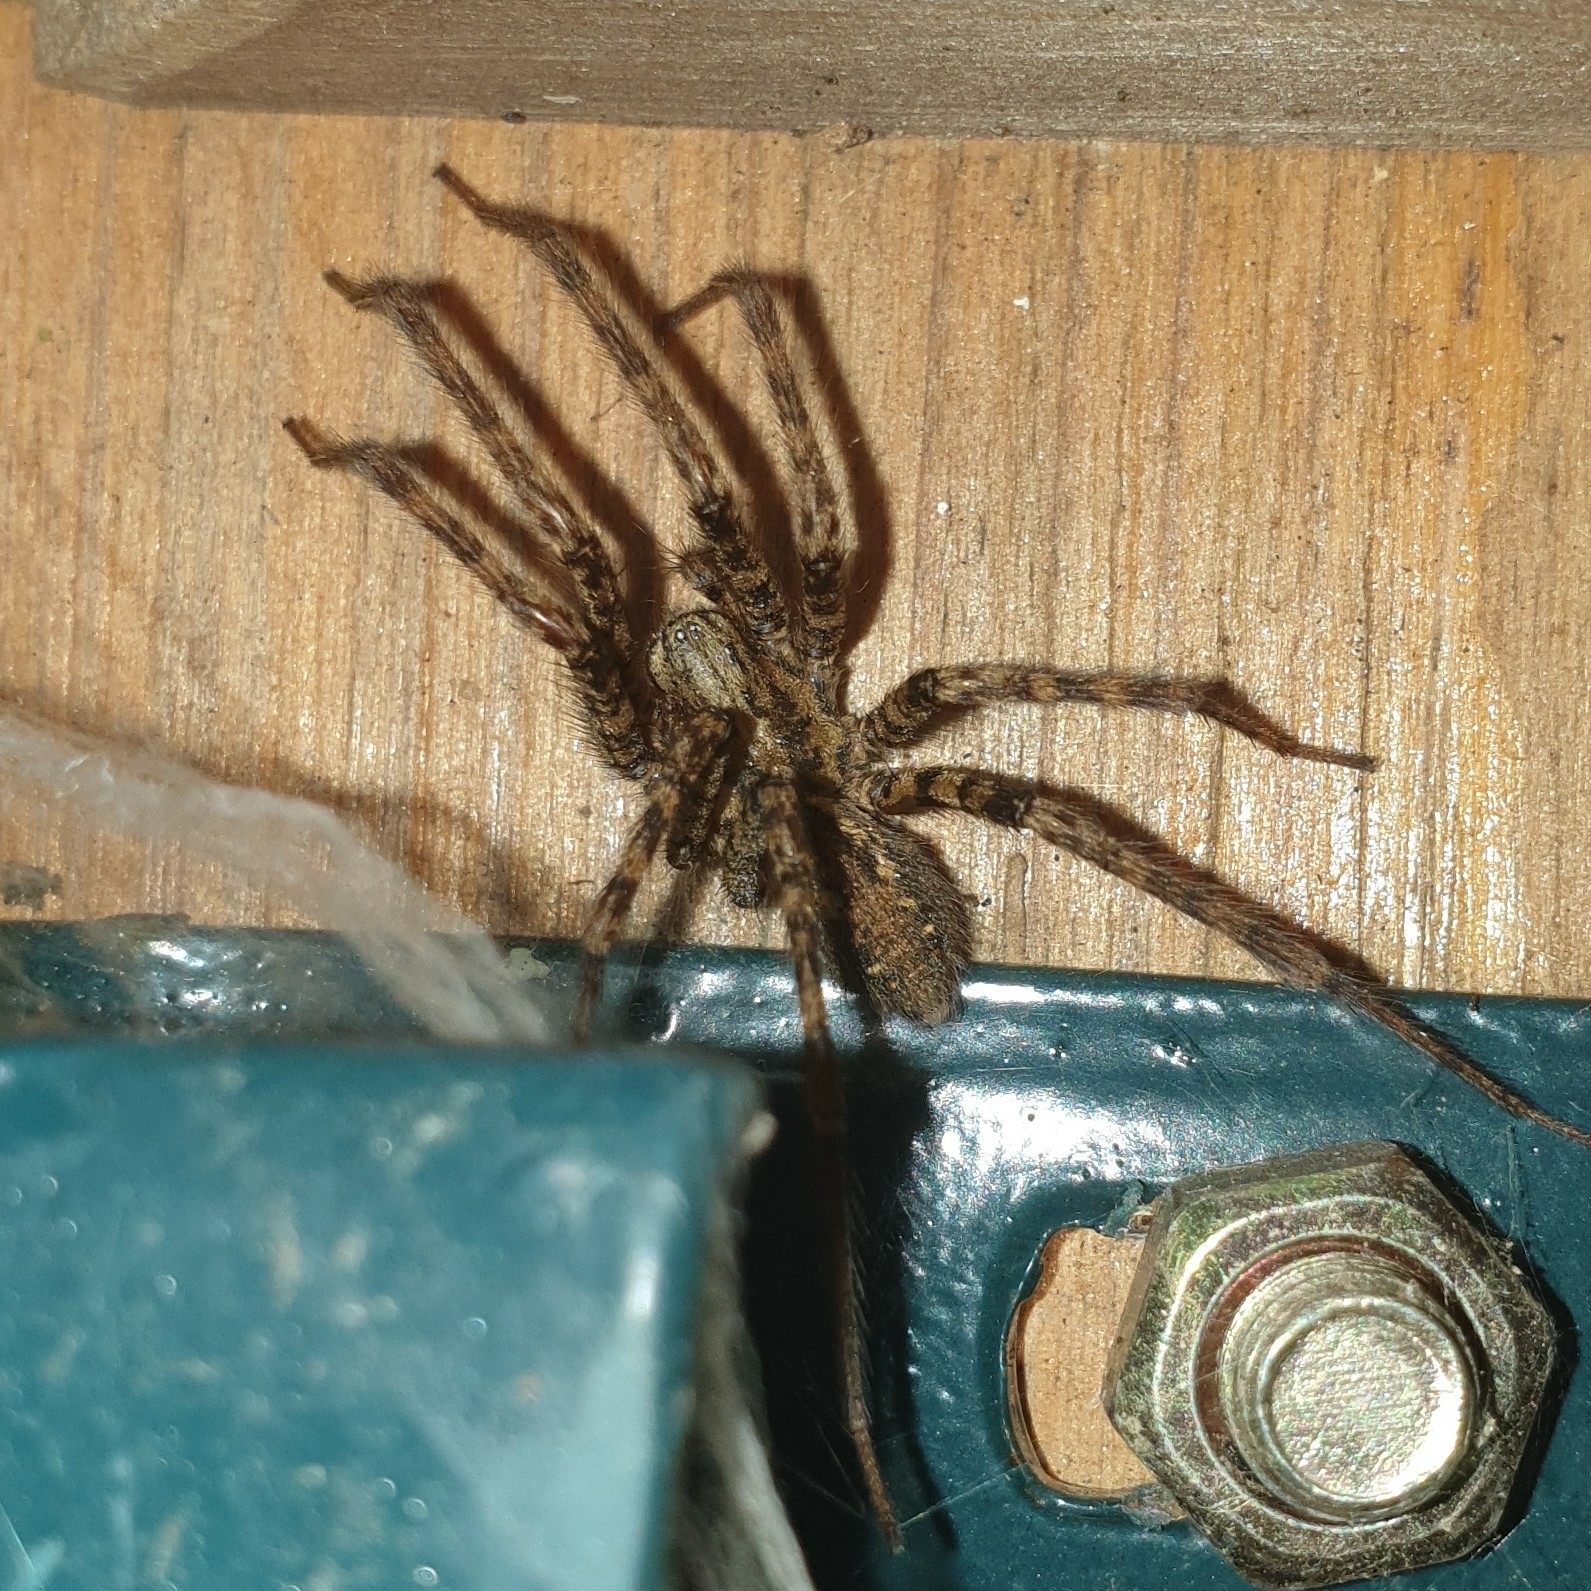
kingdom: Animalia
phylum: Arthropoda
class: Arachnida
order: Araneae
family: Agelenidae
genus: Tegenaria
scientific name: Tegenaria ferruginea
